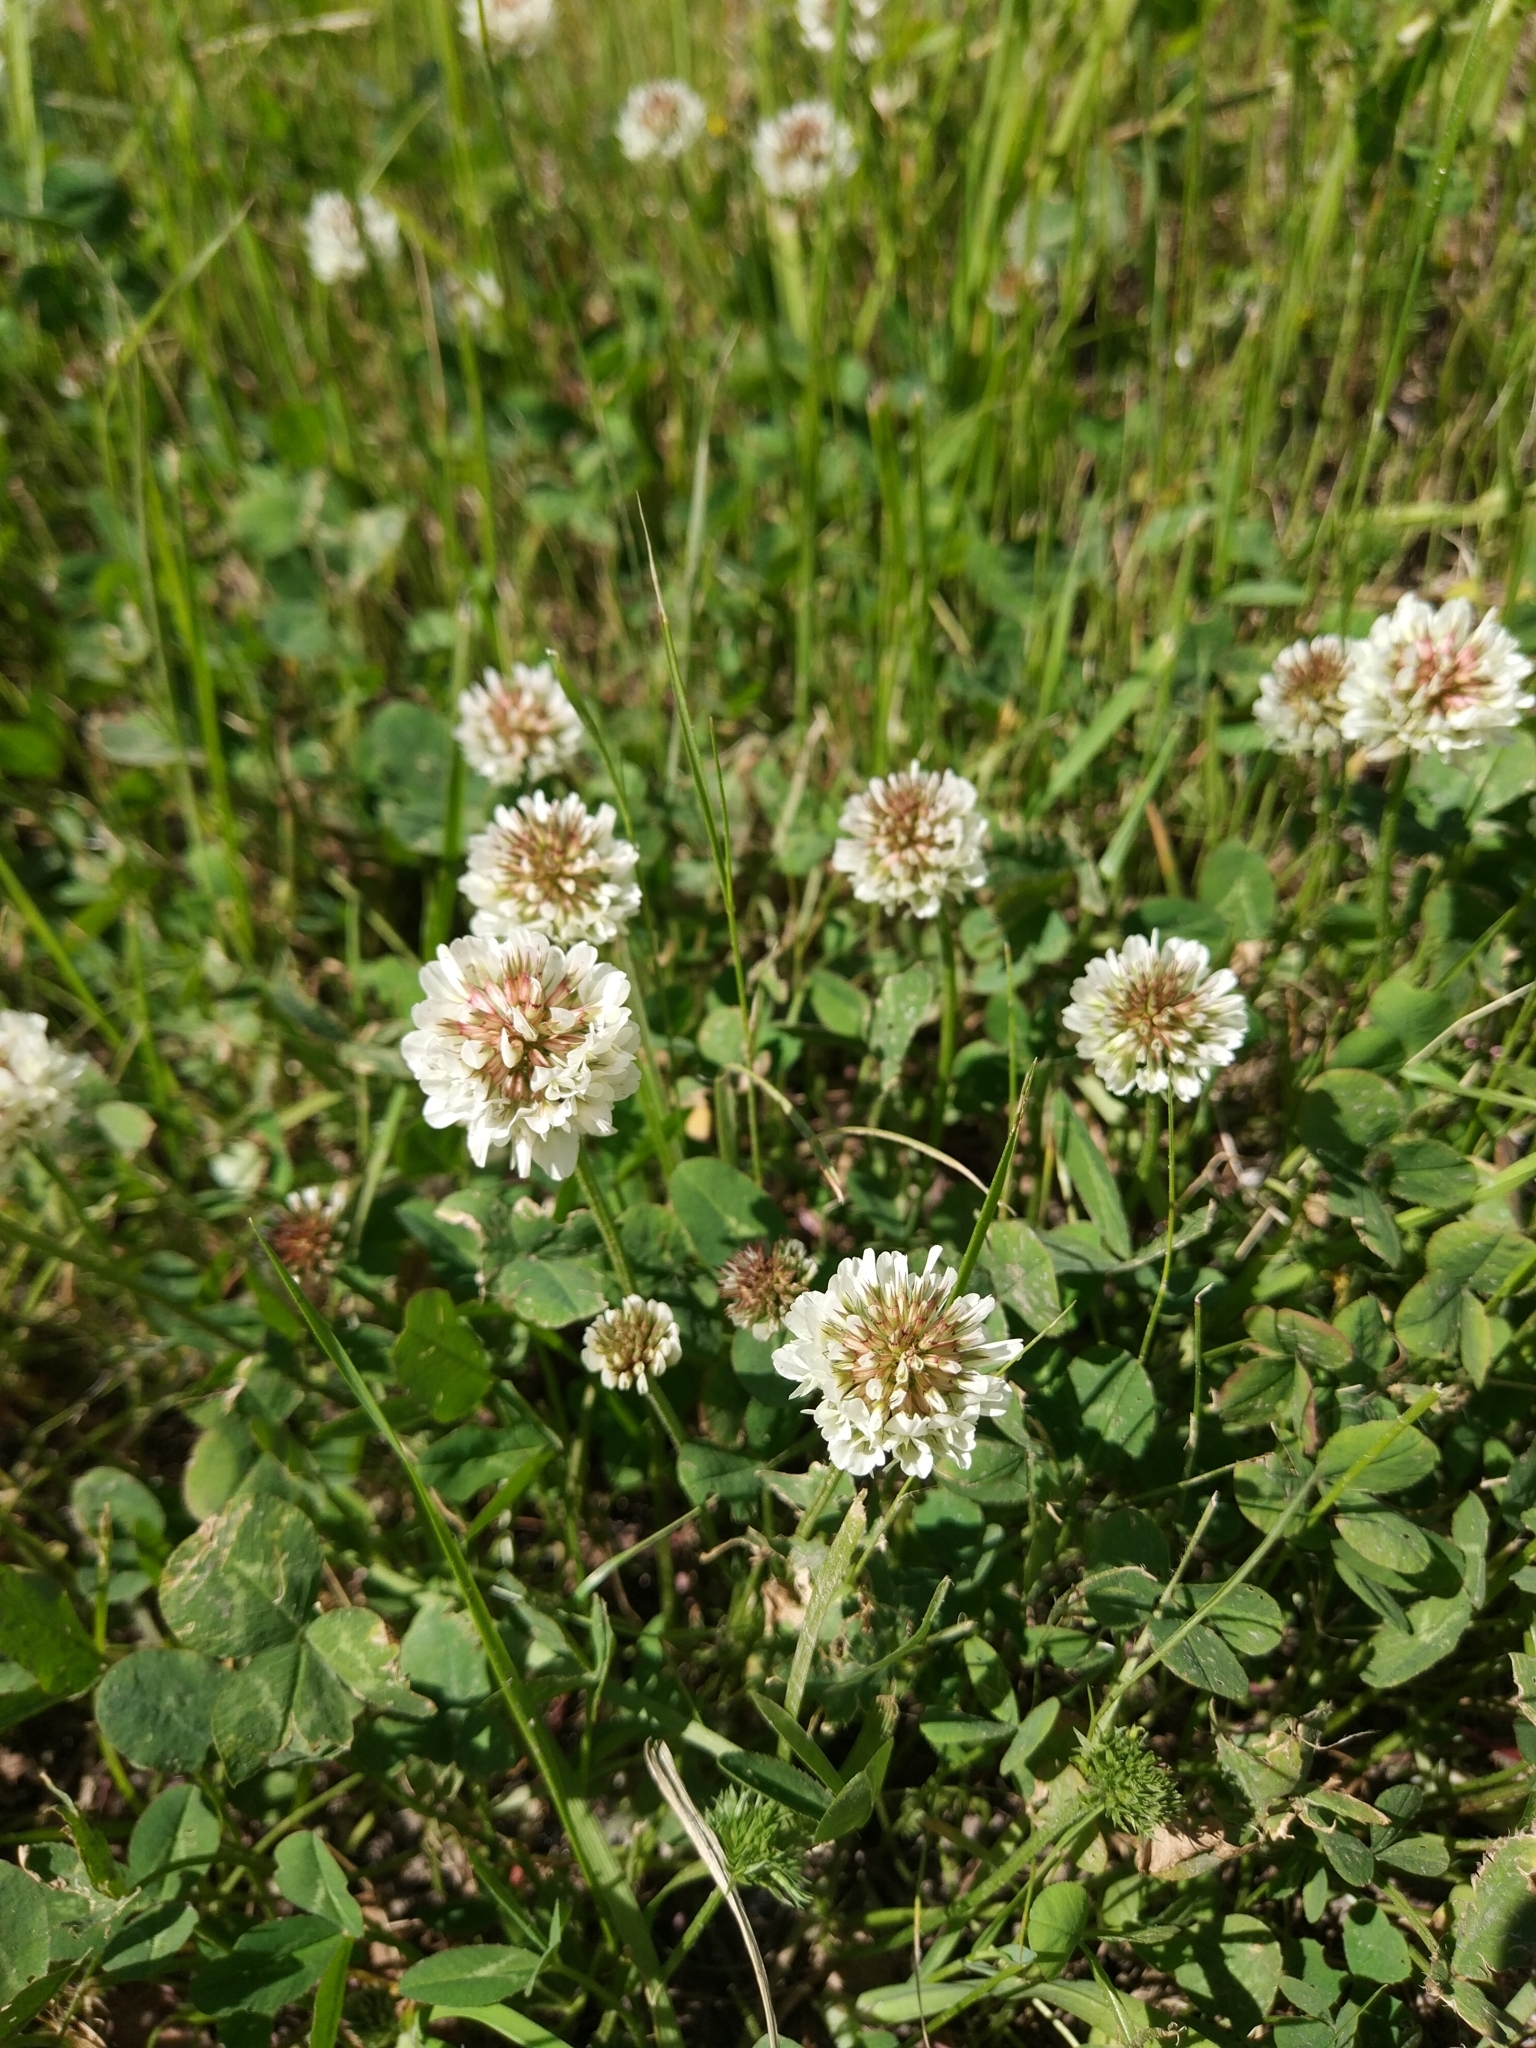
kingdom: Plantae
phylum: Tracheophyta
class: Magnoliopsida
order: Fabales
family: Fabaceae
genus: Trifolium
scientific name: Trifolium repens
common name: White clover
